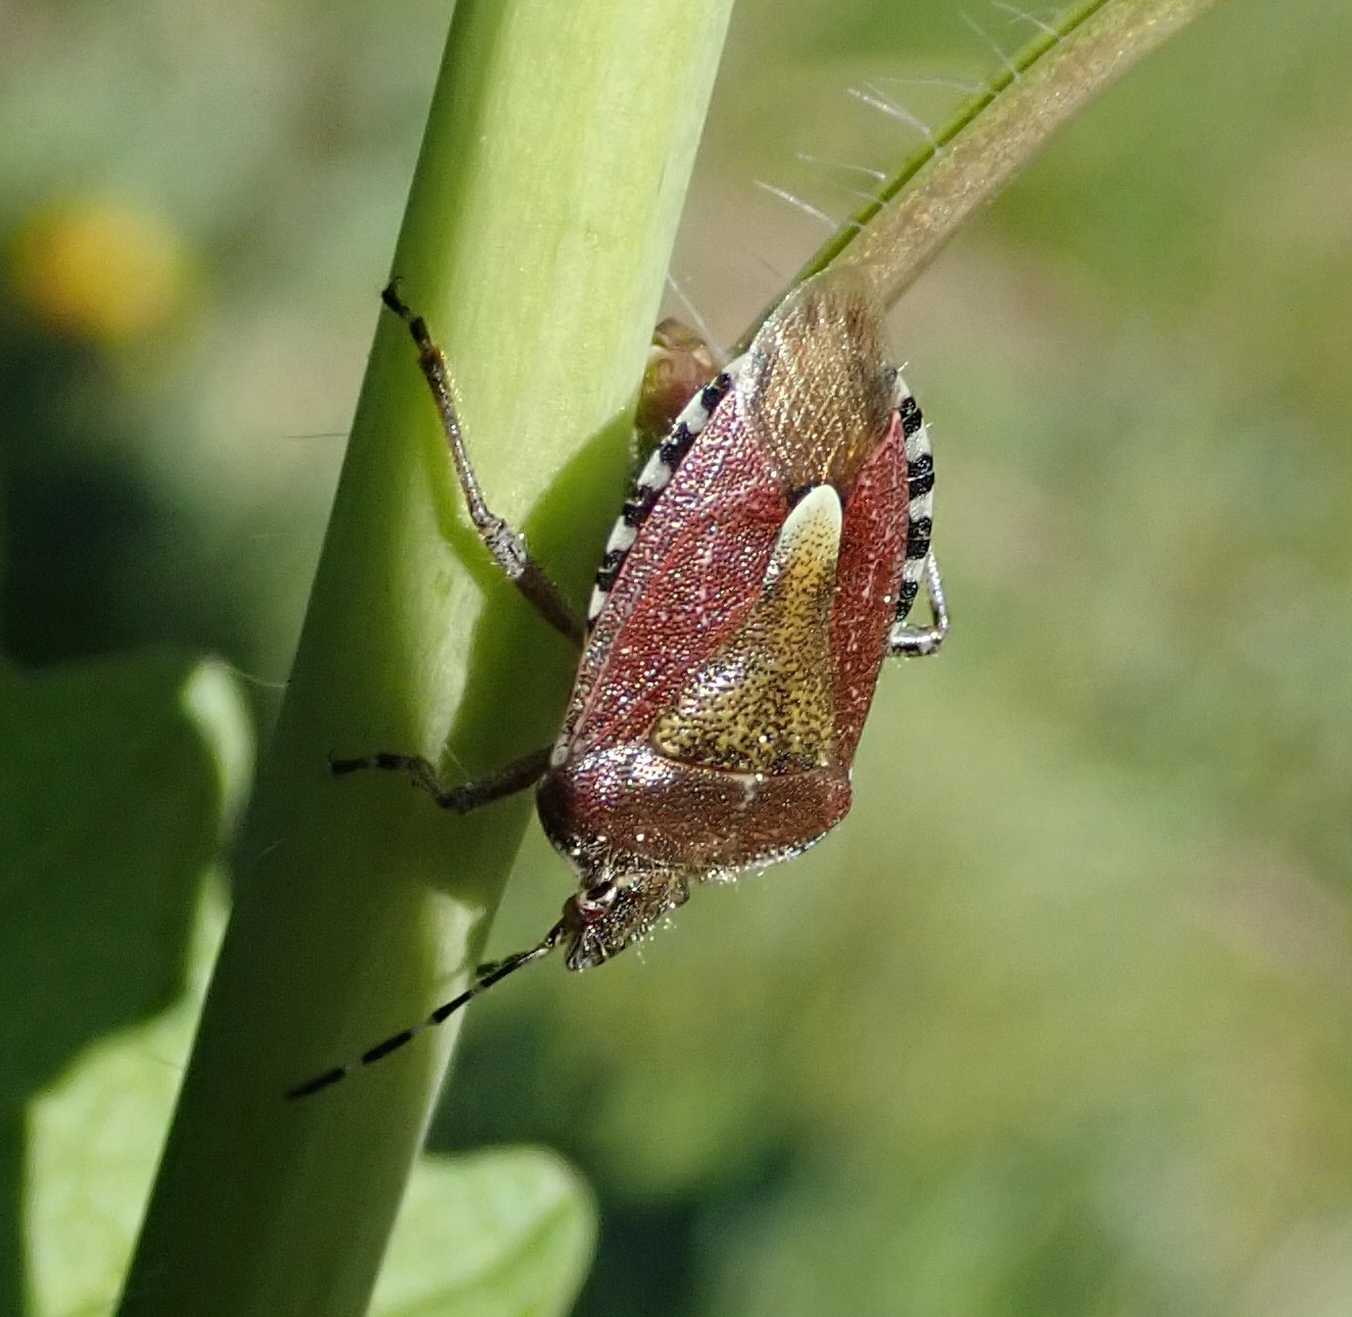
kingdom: Animalia
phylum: Arthropoda
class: Insecta
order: Hemiptera
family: Pentatomidae
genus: Dolycoris
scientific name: Dolycoris baccarum
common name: Sloe bug
